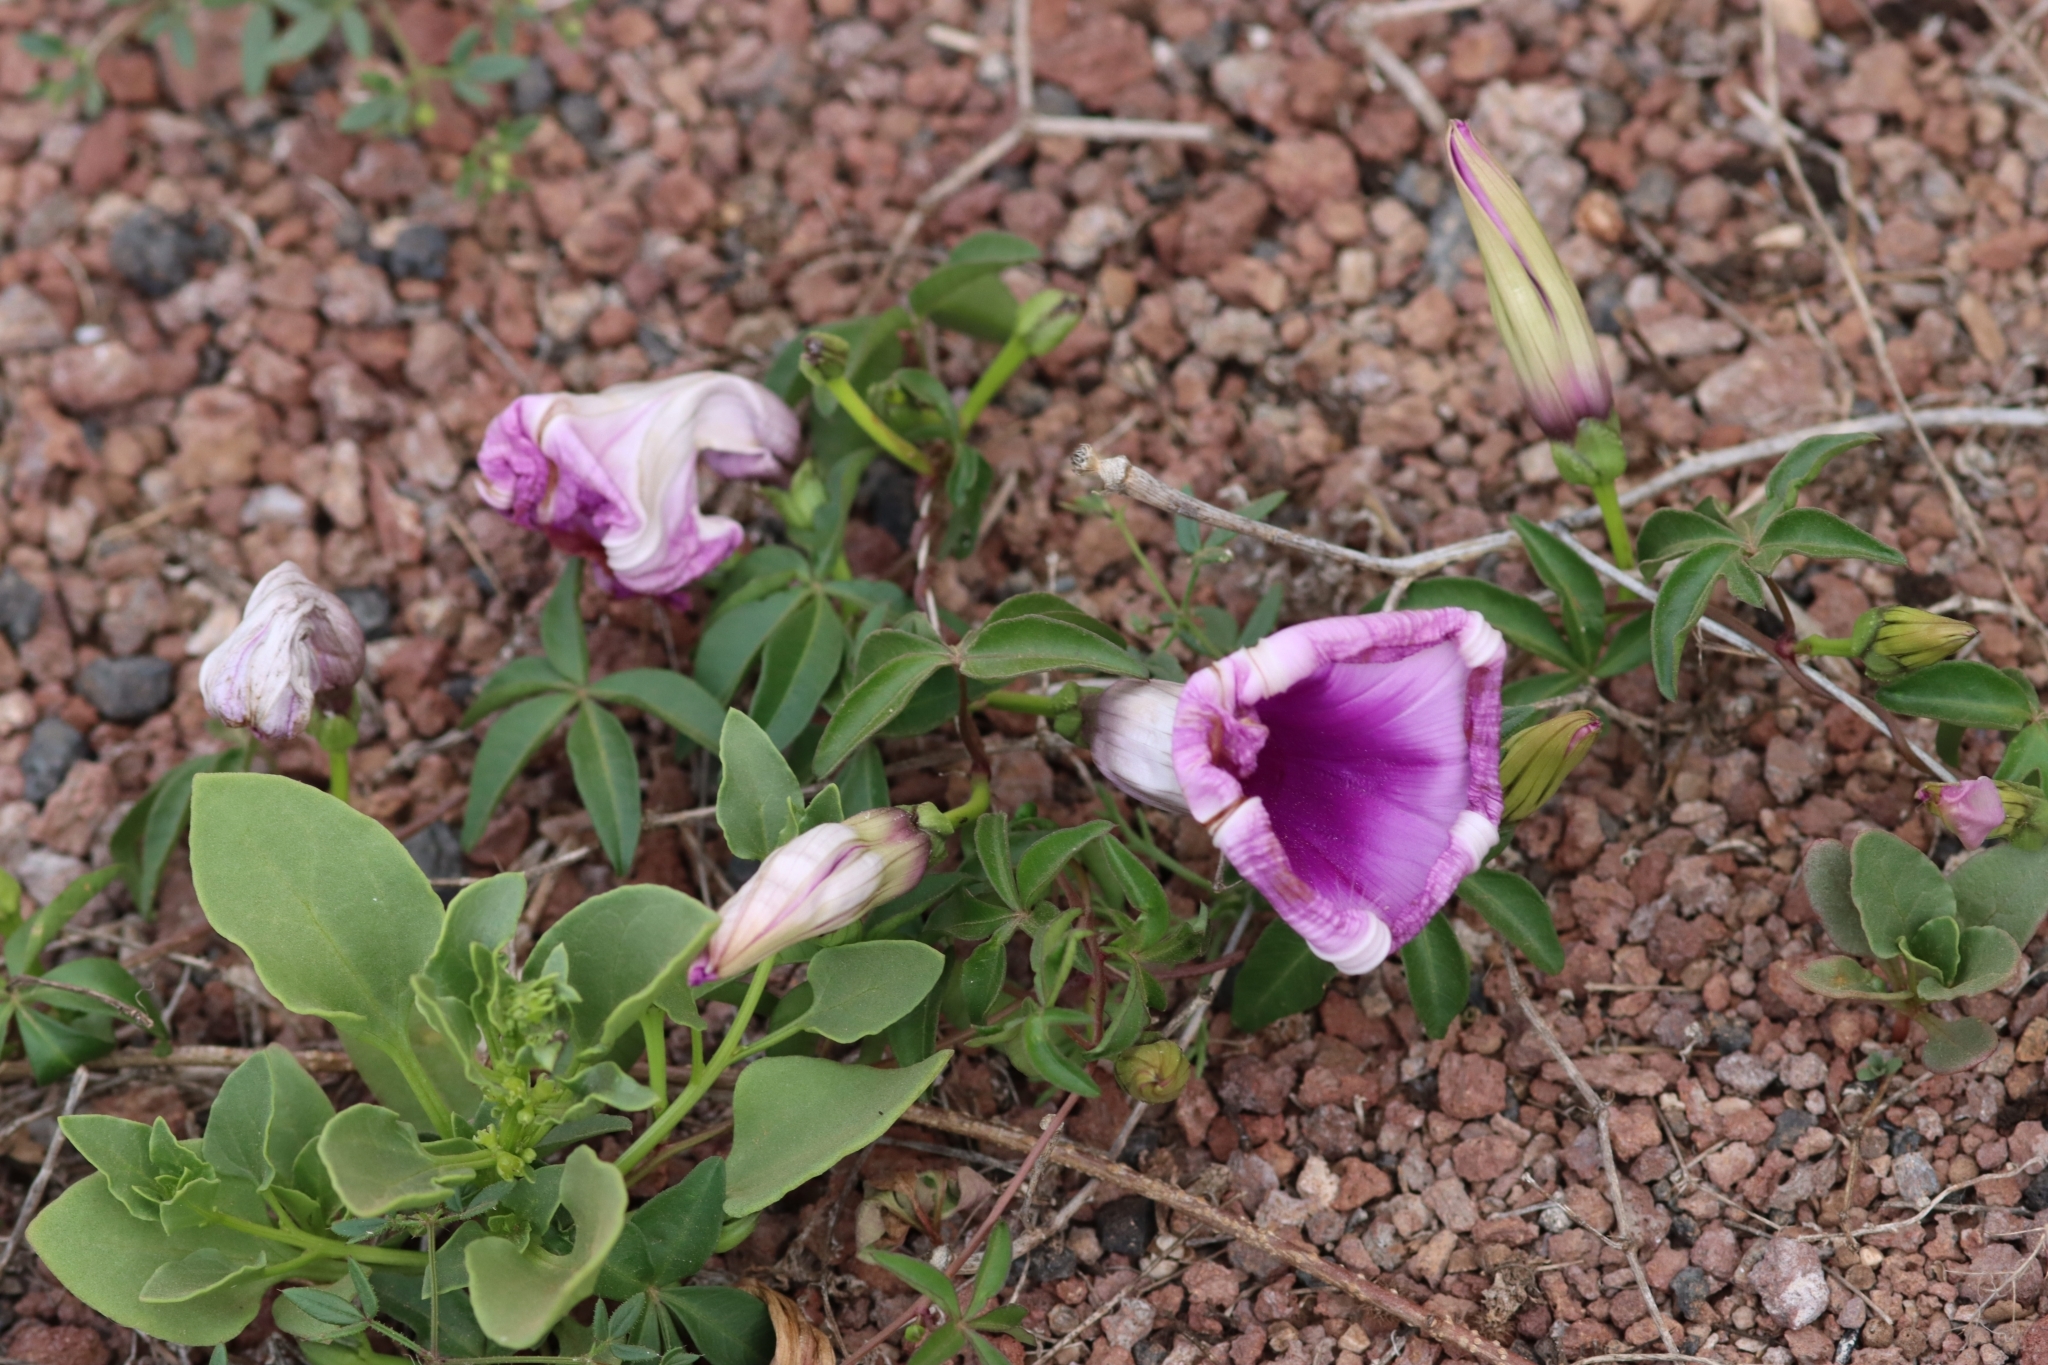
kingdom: Plantae
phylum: Tracheophyta
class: Magnoliopsida
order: Solanales
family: Convolvulaceae
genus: Ipomoea
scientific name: Ipomoea cairica
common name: Mile a minute vine
